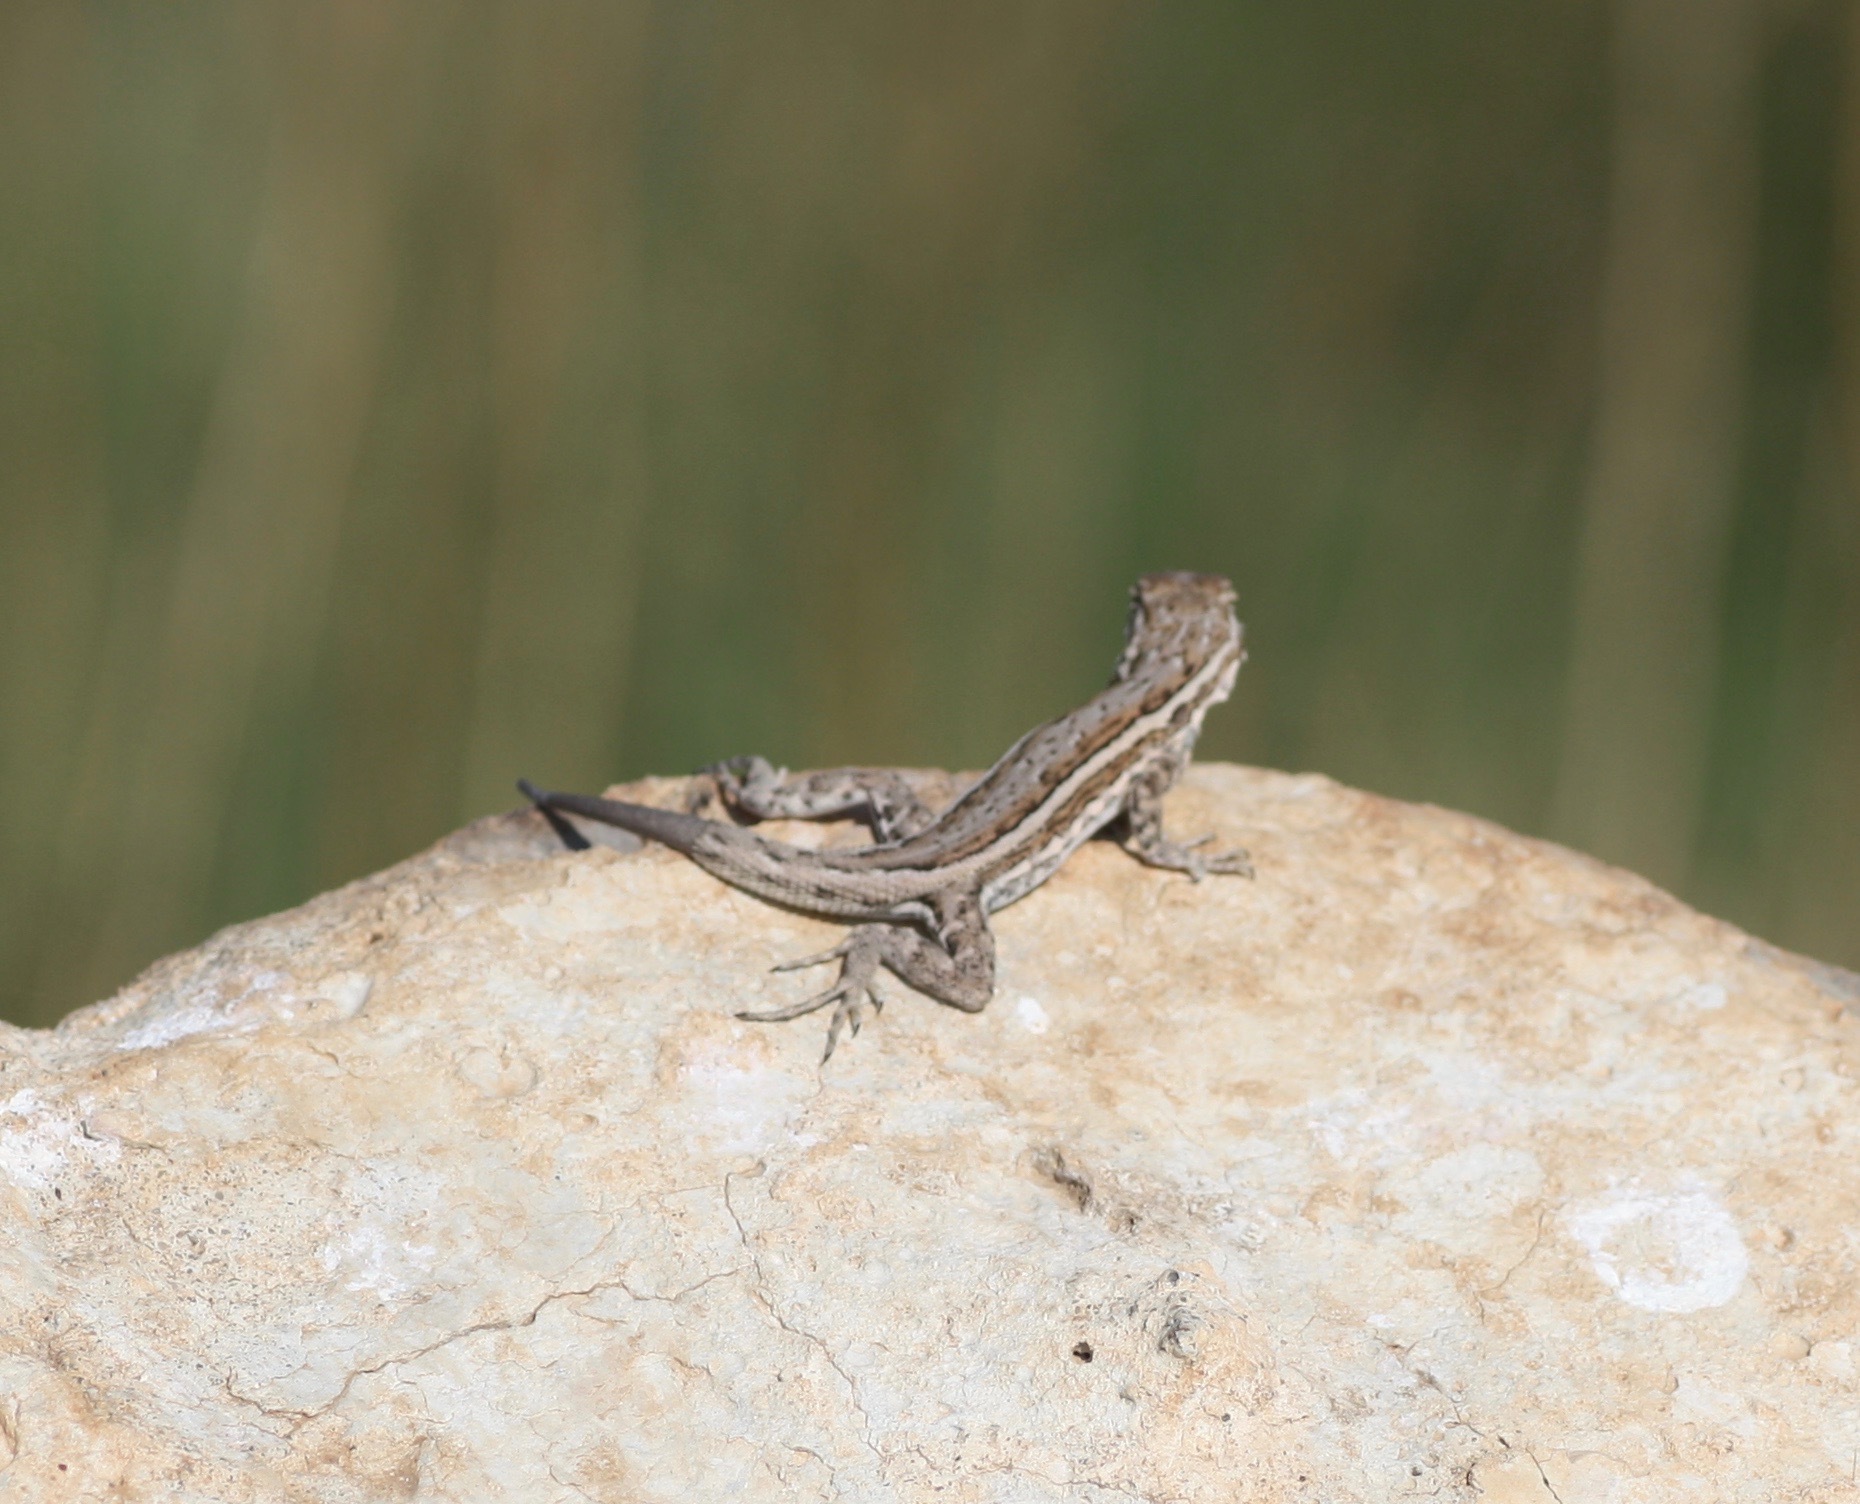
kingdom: Animalia
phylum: Chordata
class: Squamata
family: Phrynosomatidae
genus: Uta
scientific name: Uta stansburiana
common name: Side-blotched lizard
